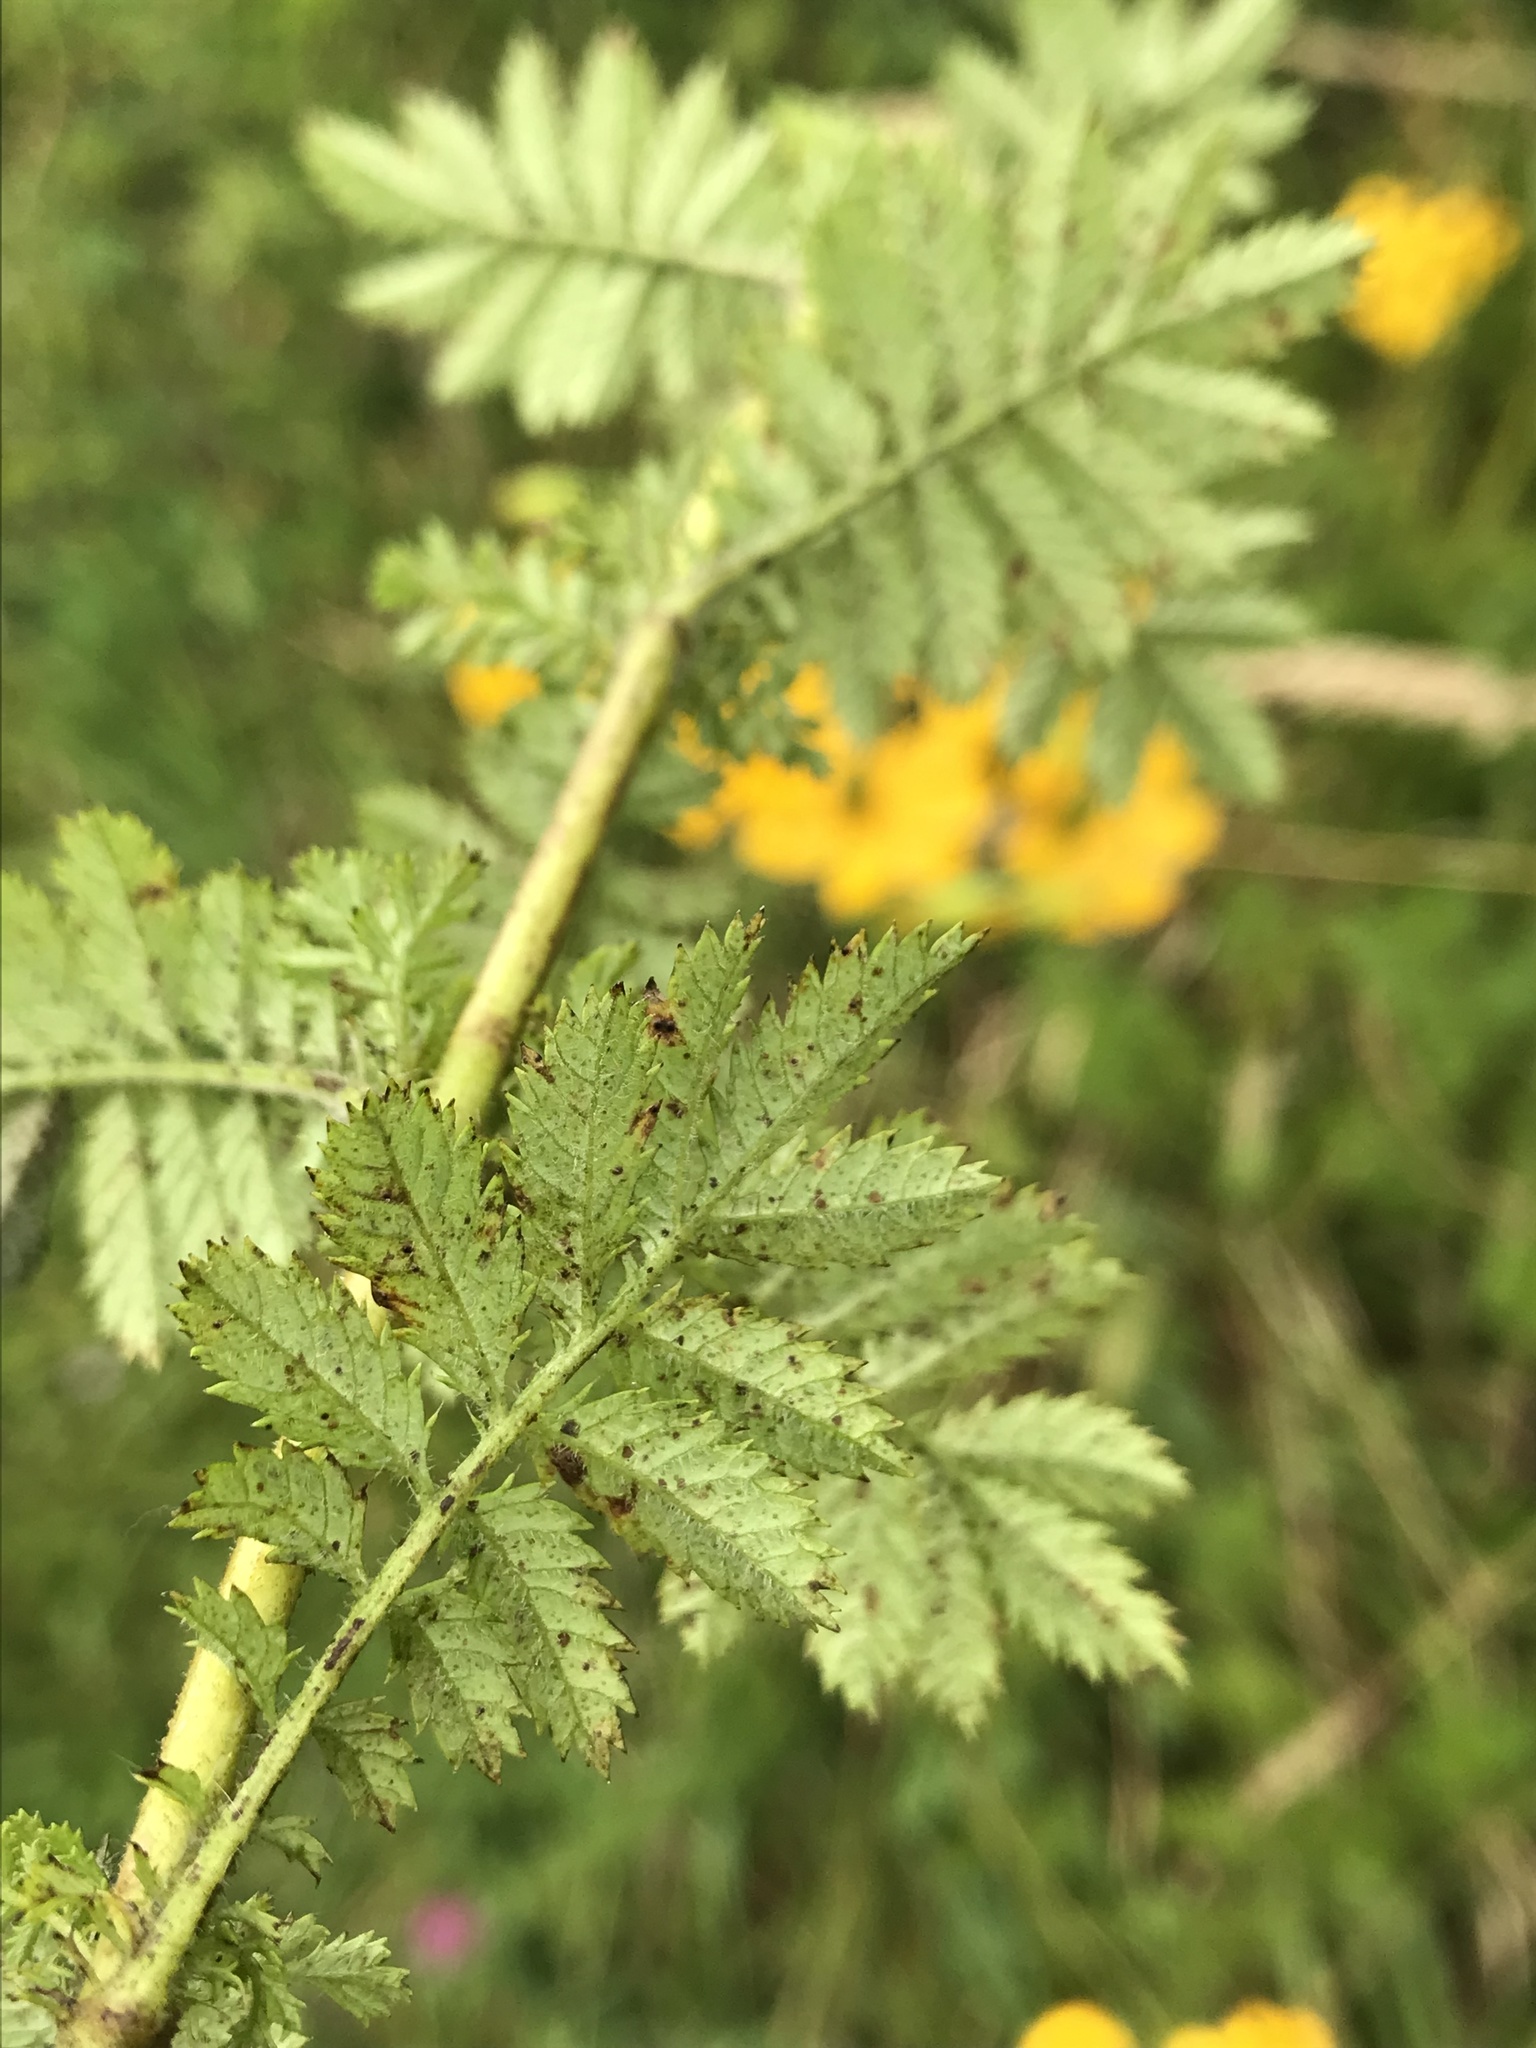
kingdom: Plantae
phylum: Tracheophyta
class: Magnoliopsida
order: Asterales
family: Asteraceae
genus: Tagetes
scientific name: Tagetes zypaquirensis
